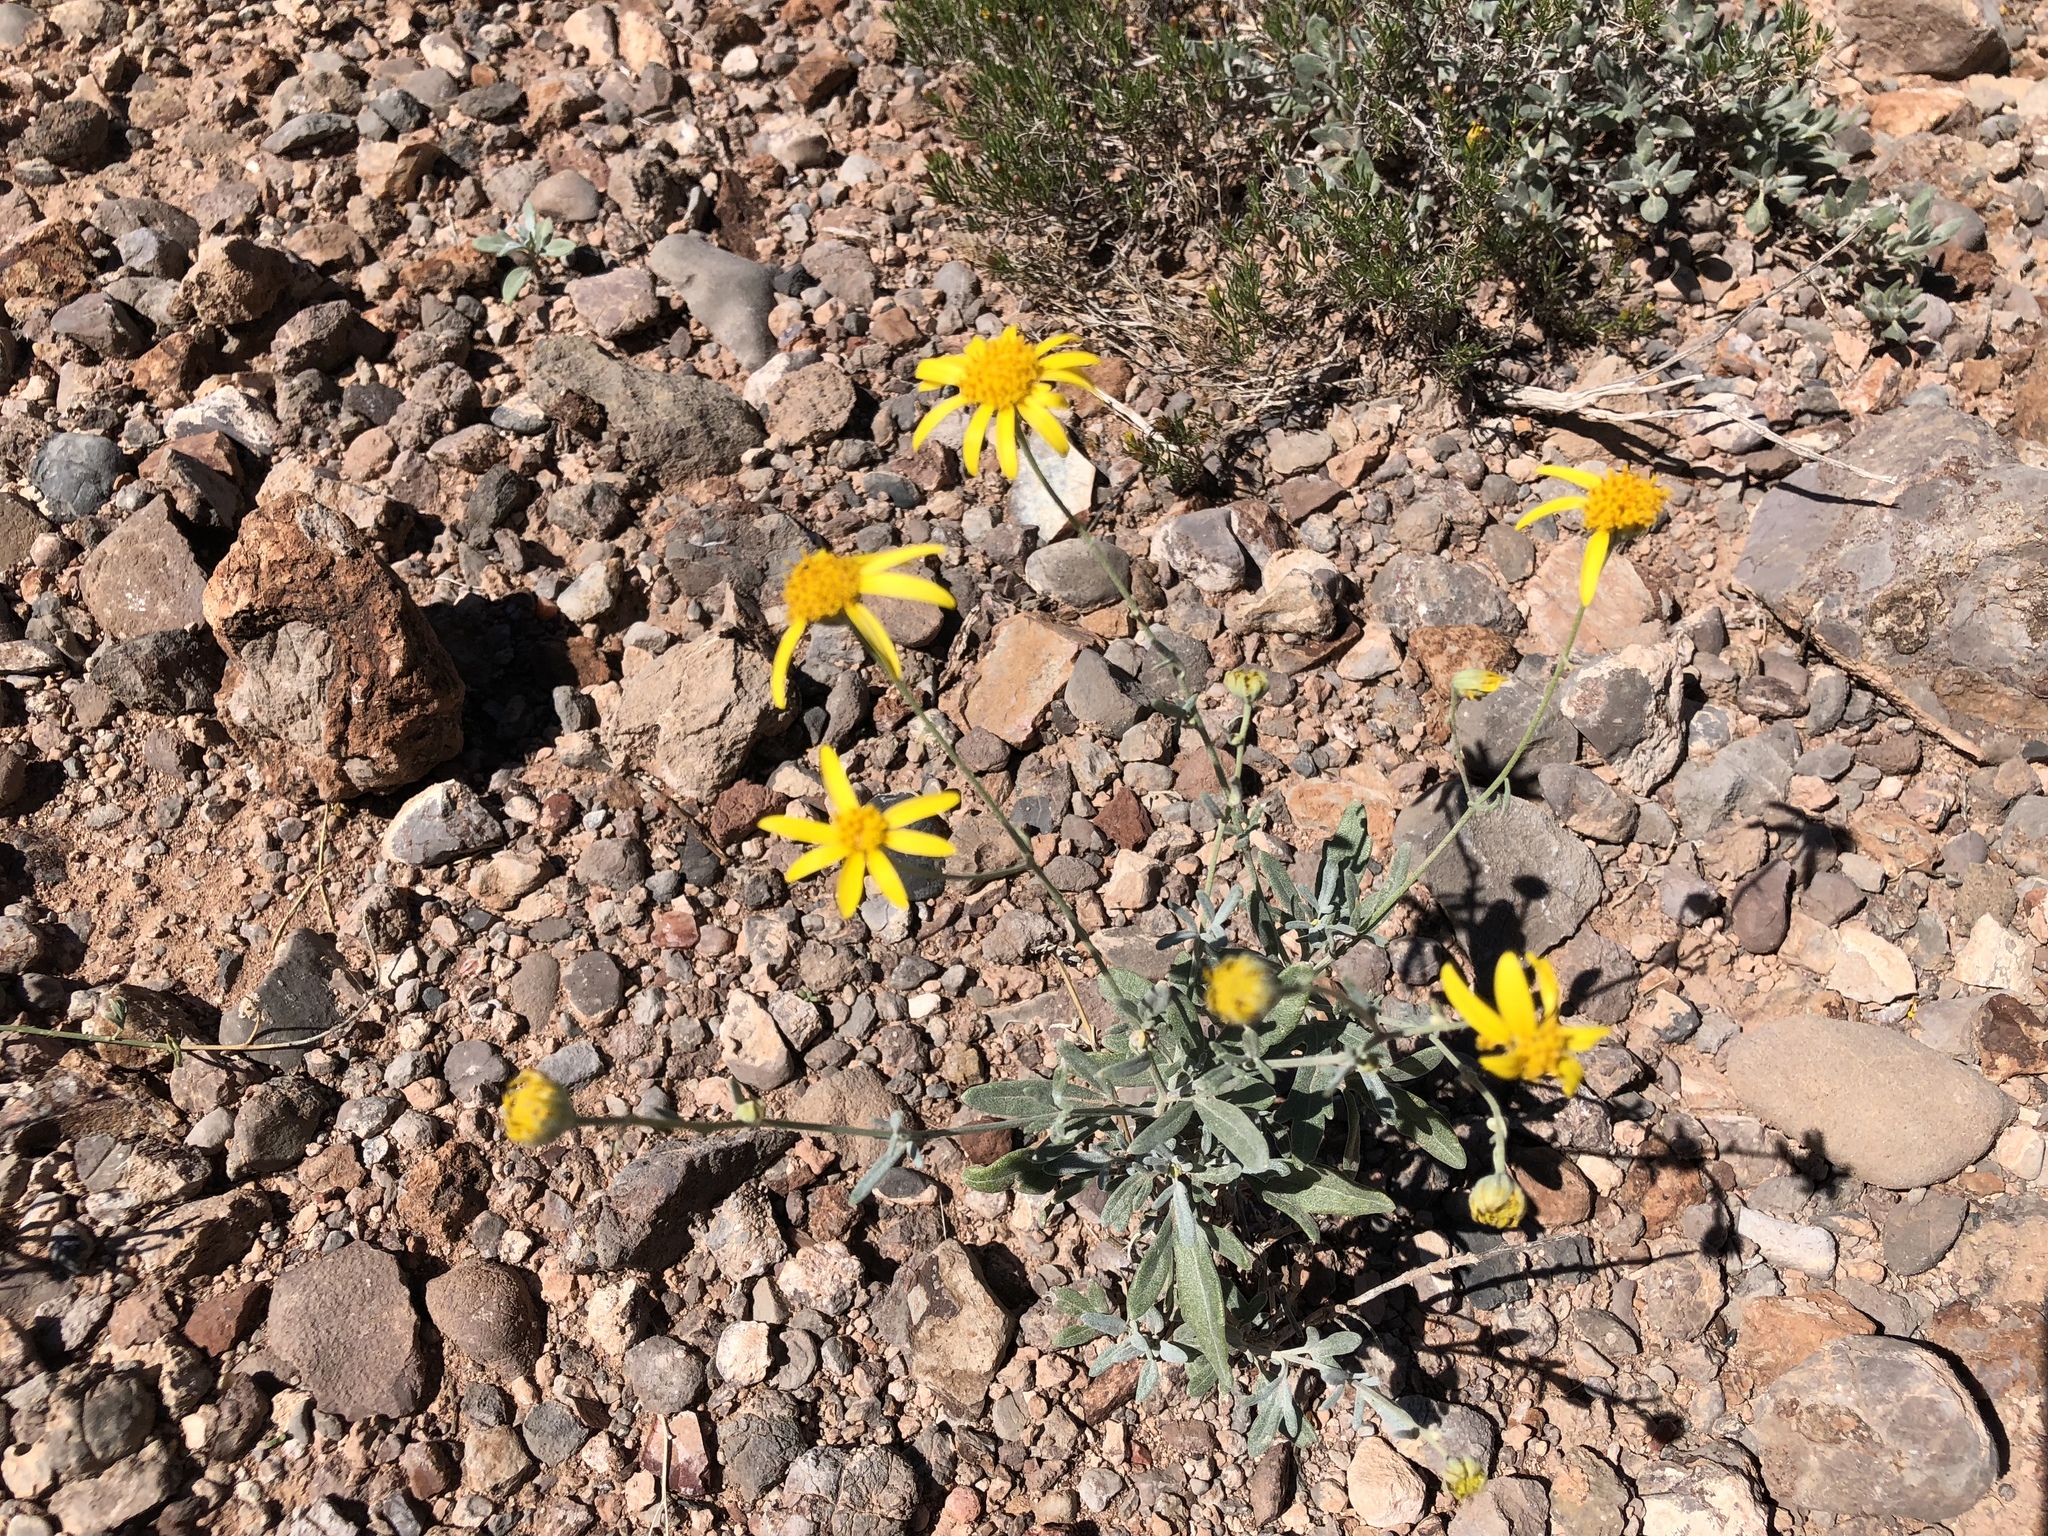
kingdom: Plantae
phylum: Tracheophyta
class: Magnoliopsida
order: Asterales
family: Asteraceae
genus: Picradeniopsis
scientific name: Picradeniopsis absinthifolia
